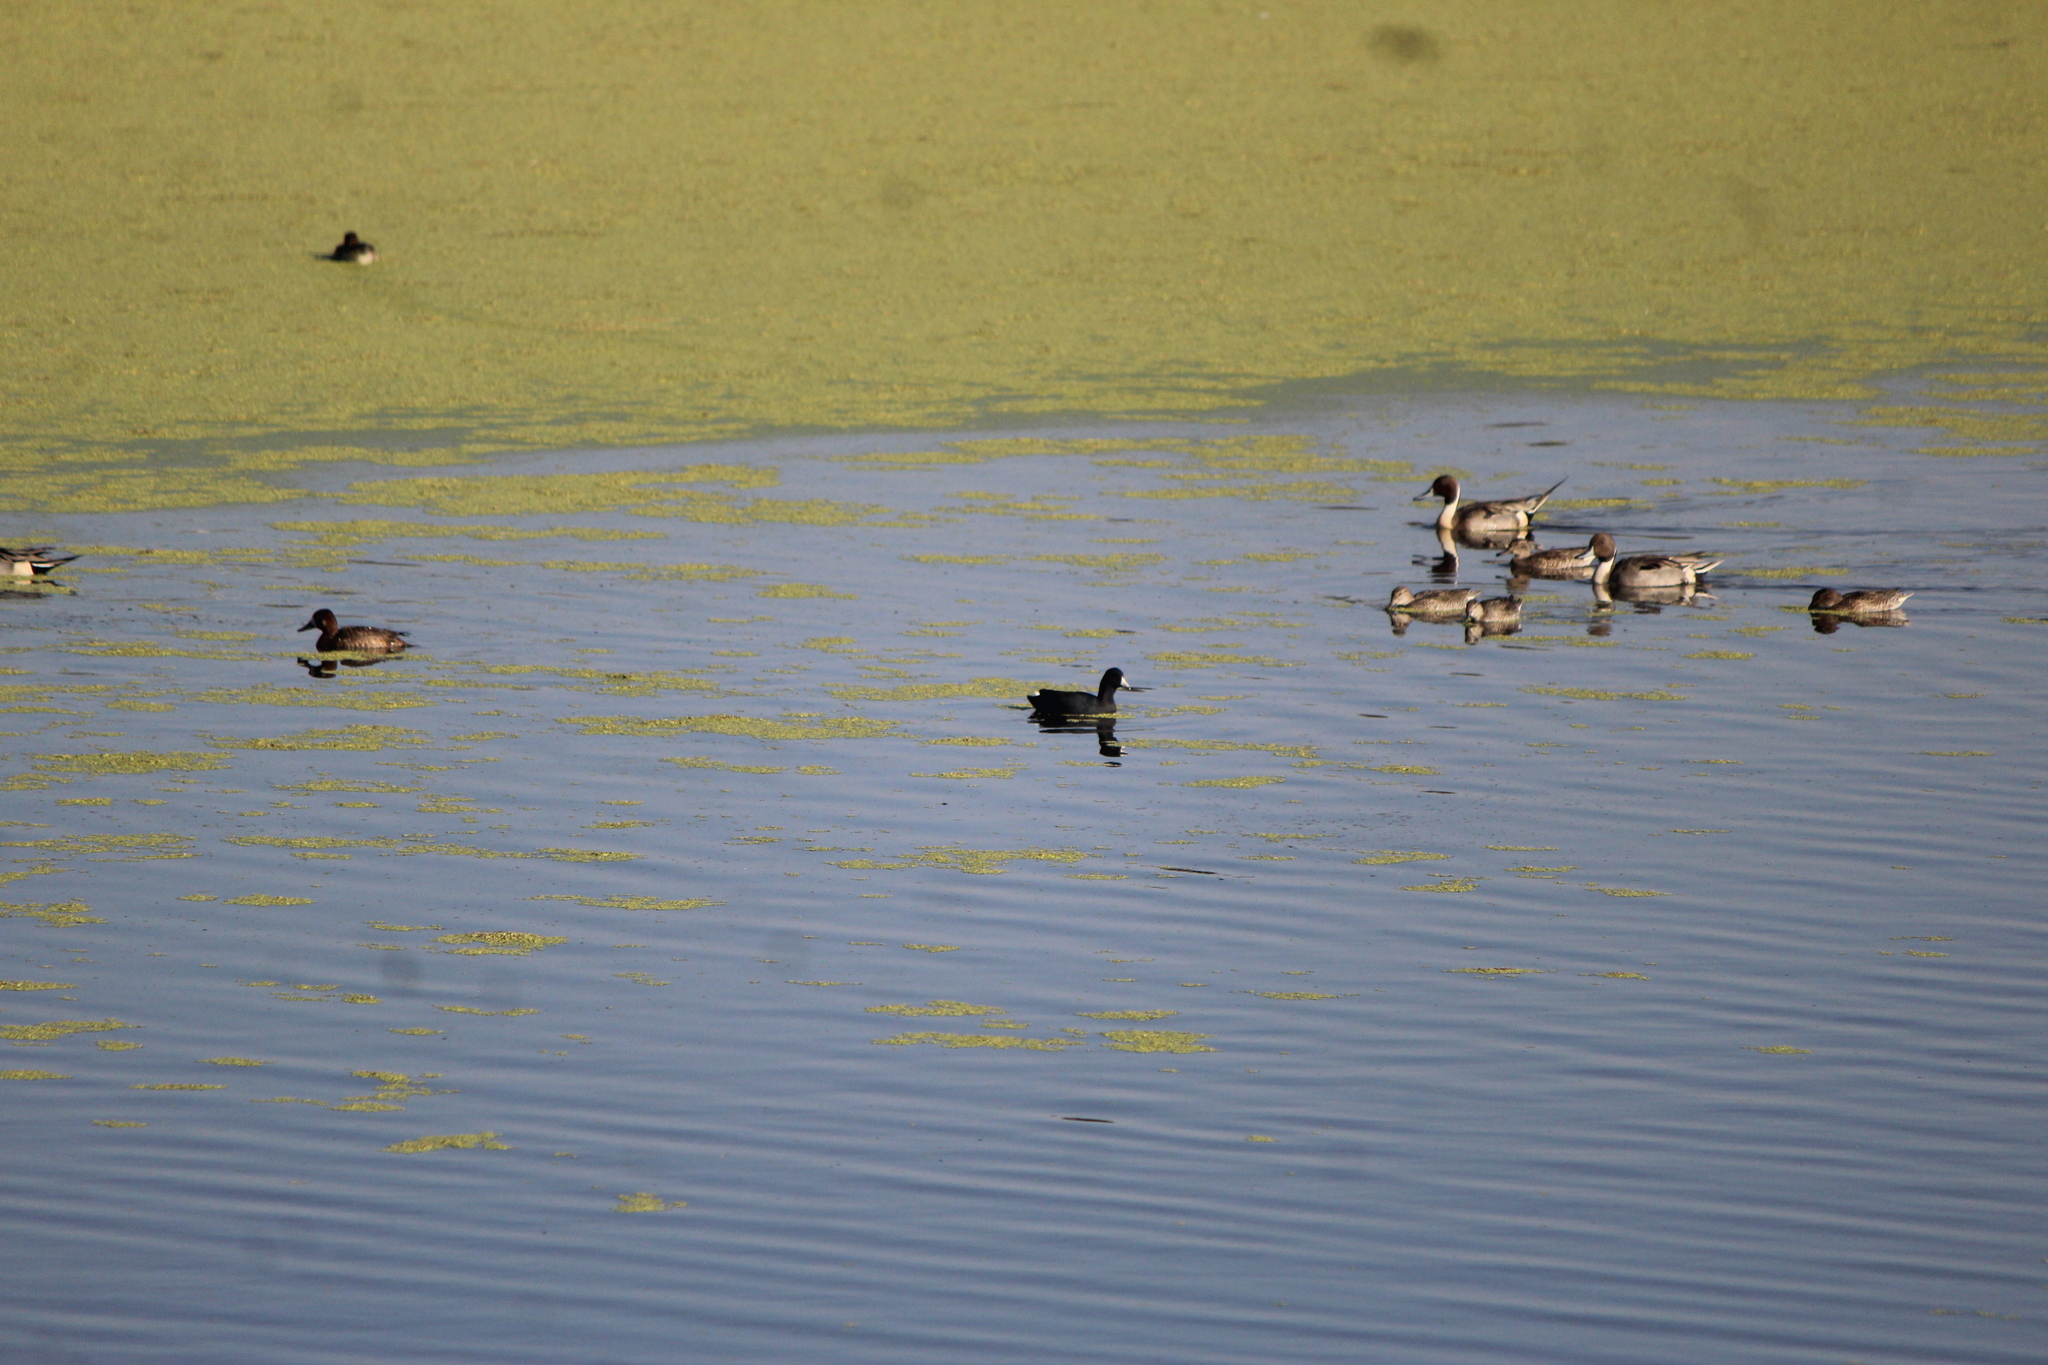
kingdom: Animalia
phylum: Chordata
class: Aves
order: Gruiformes
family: Rallidae
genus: Fulica
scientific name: Fulica americana
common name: American coot
